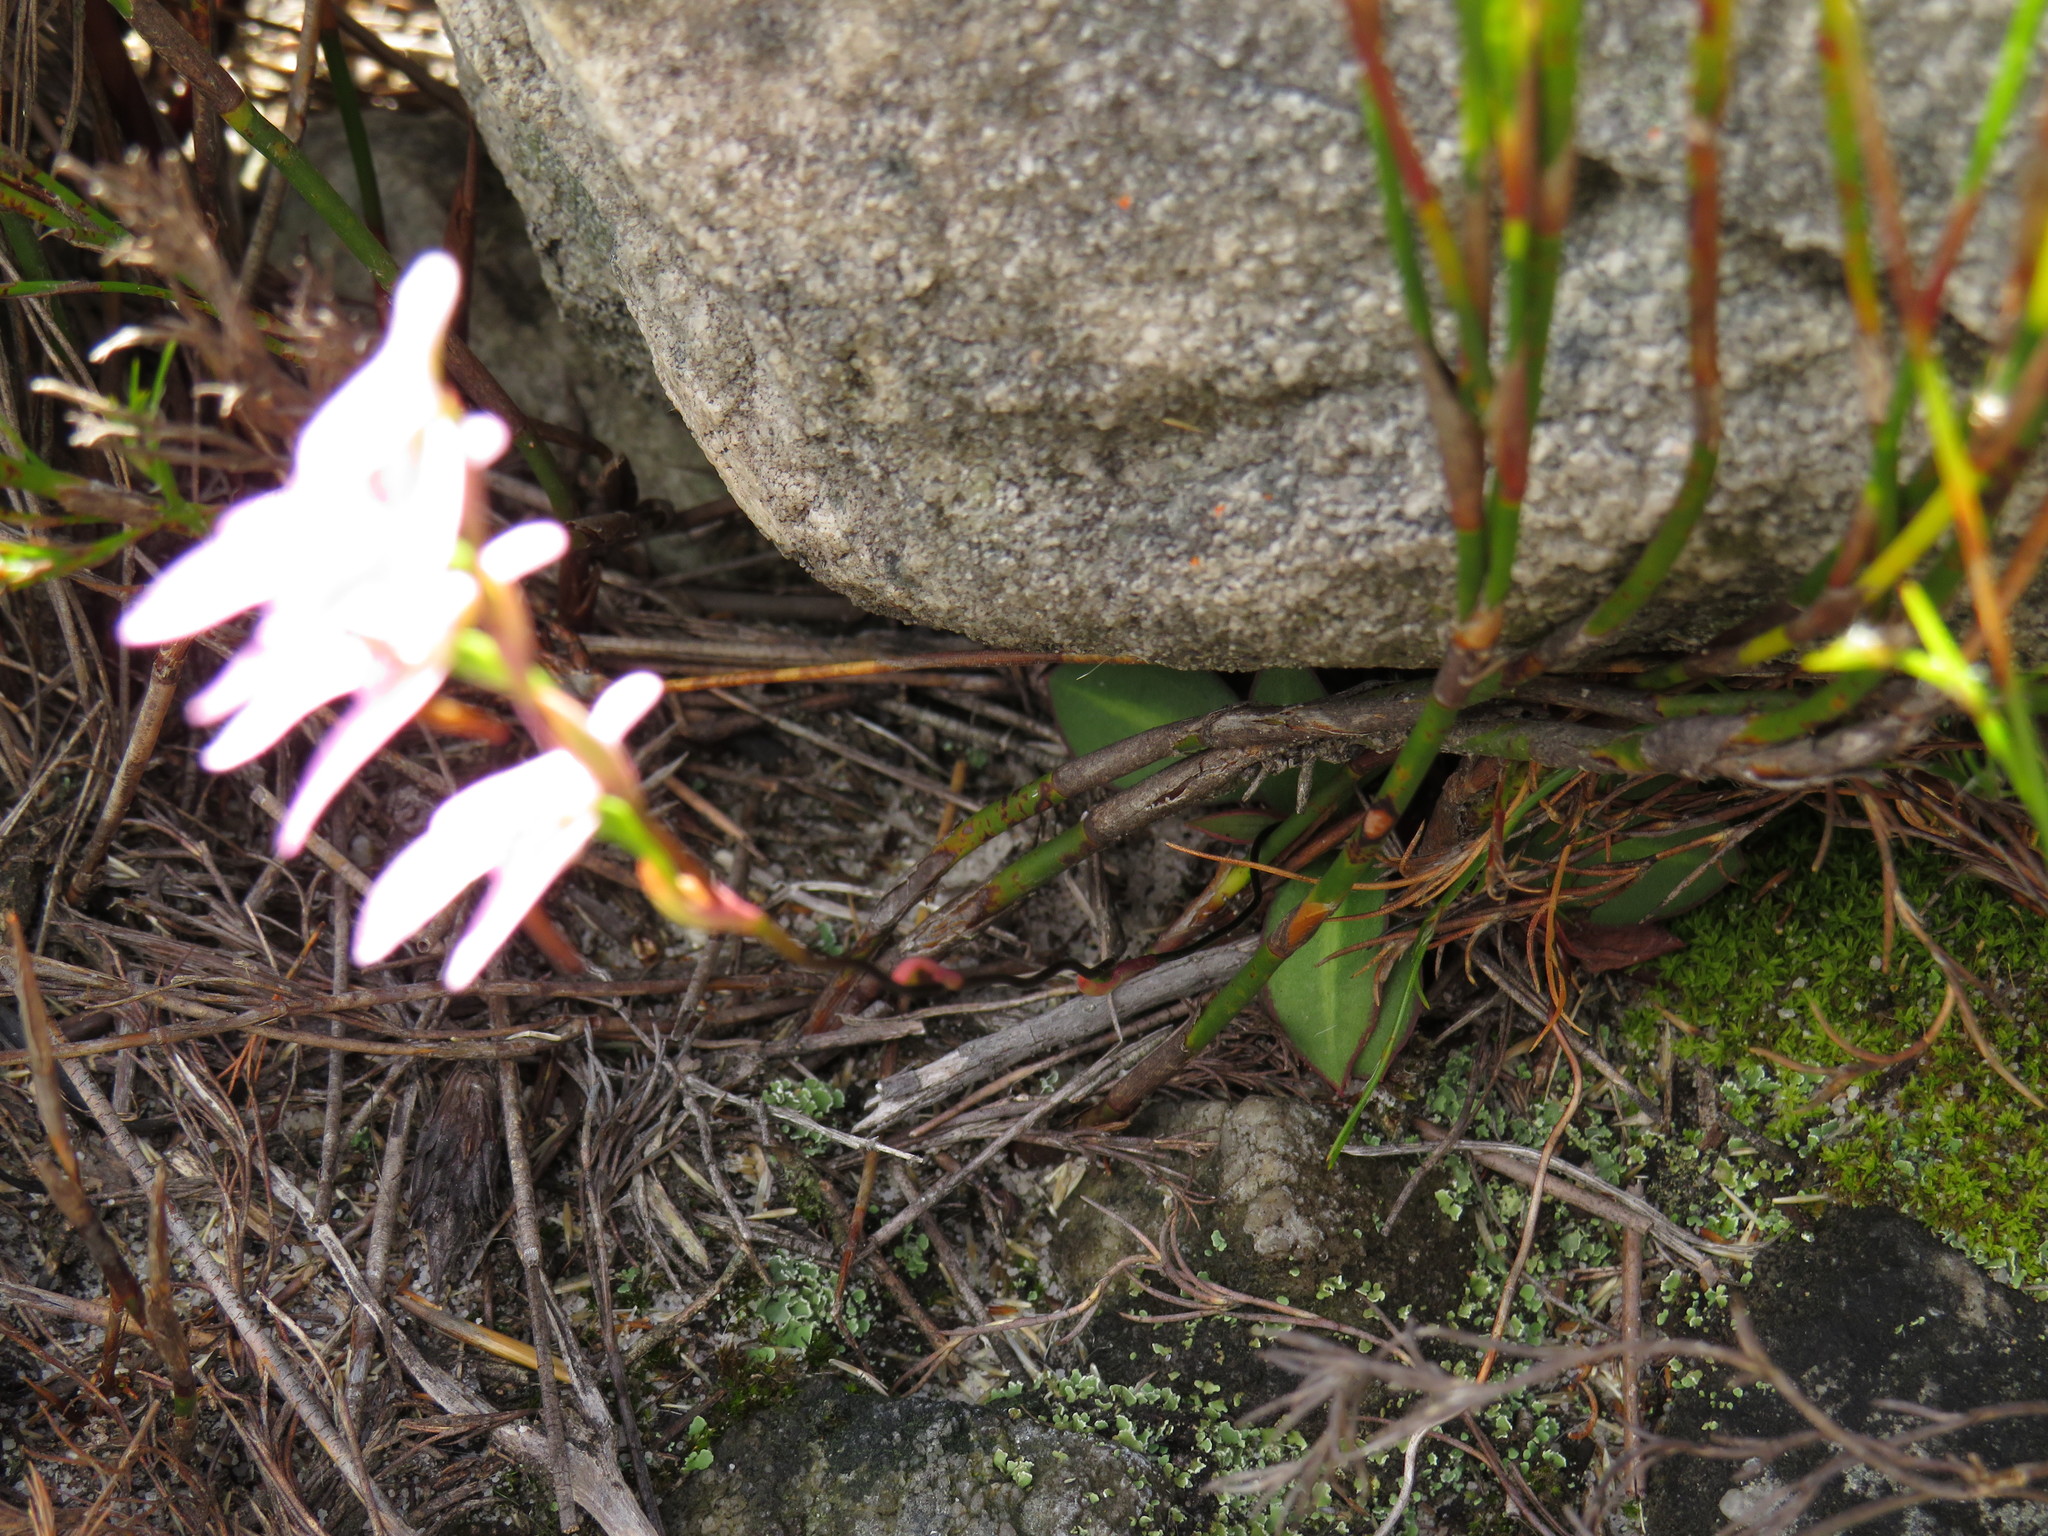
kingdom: Plantae
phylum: Tracheophyta
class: Liliopsida
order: Asparagales
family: Orchidaceae
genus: Disa
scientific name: Disa obliqua
